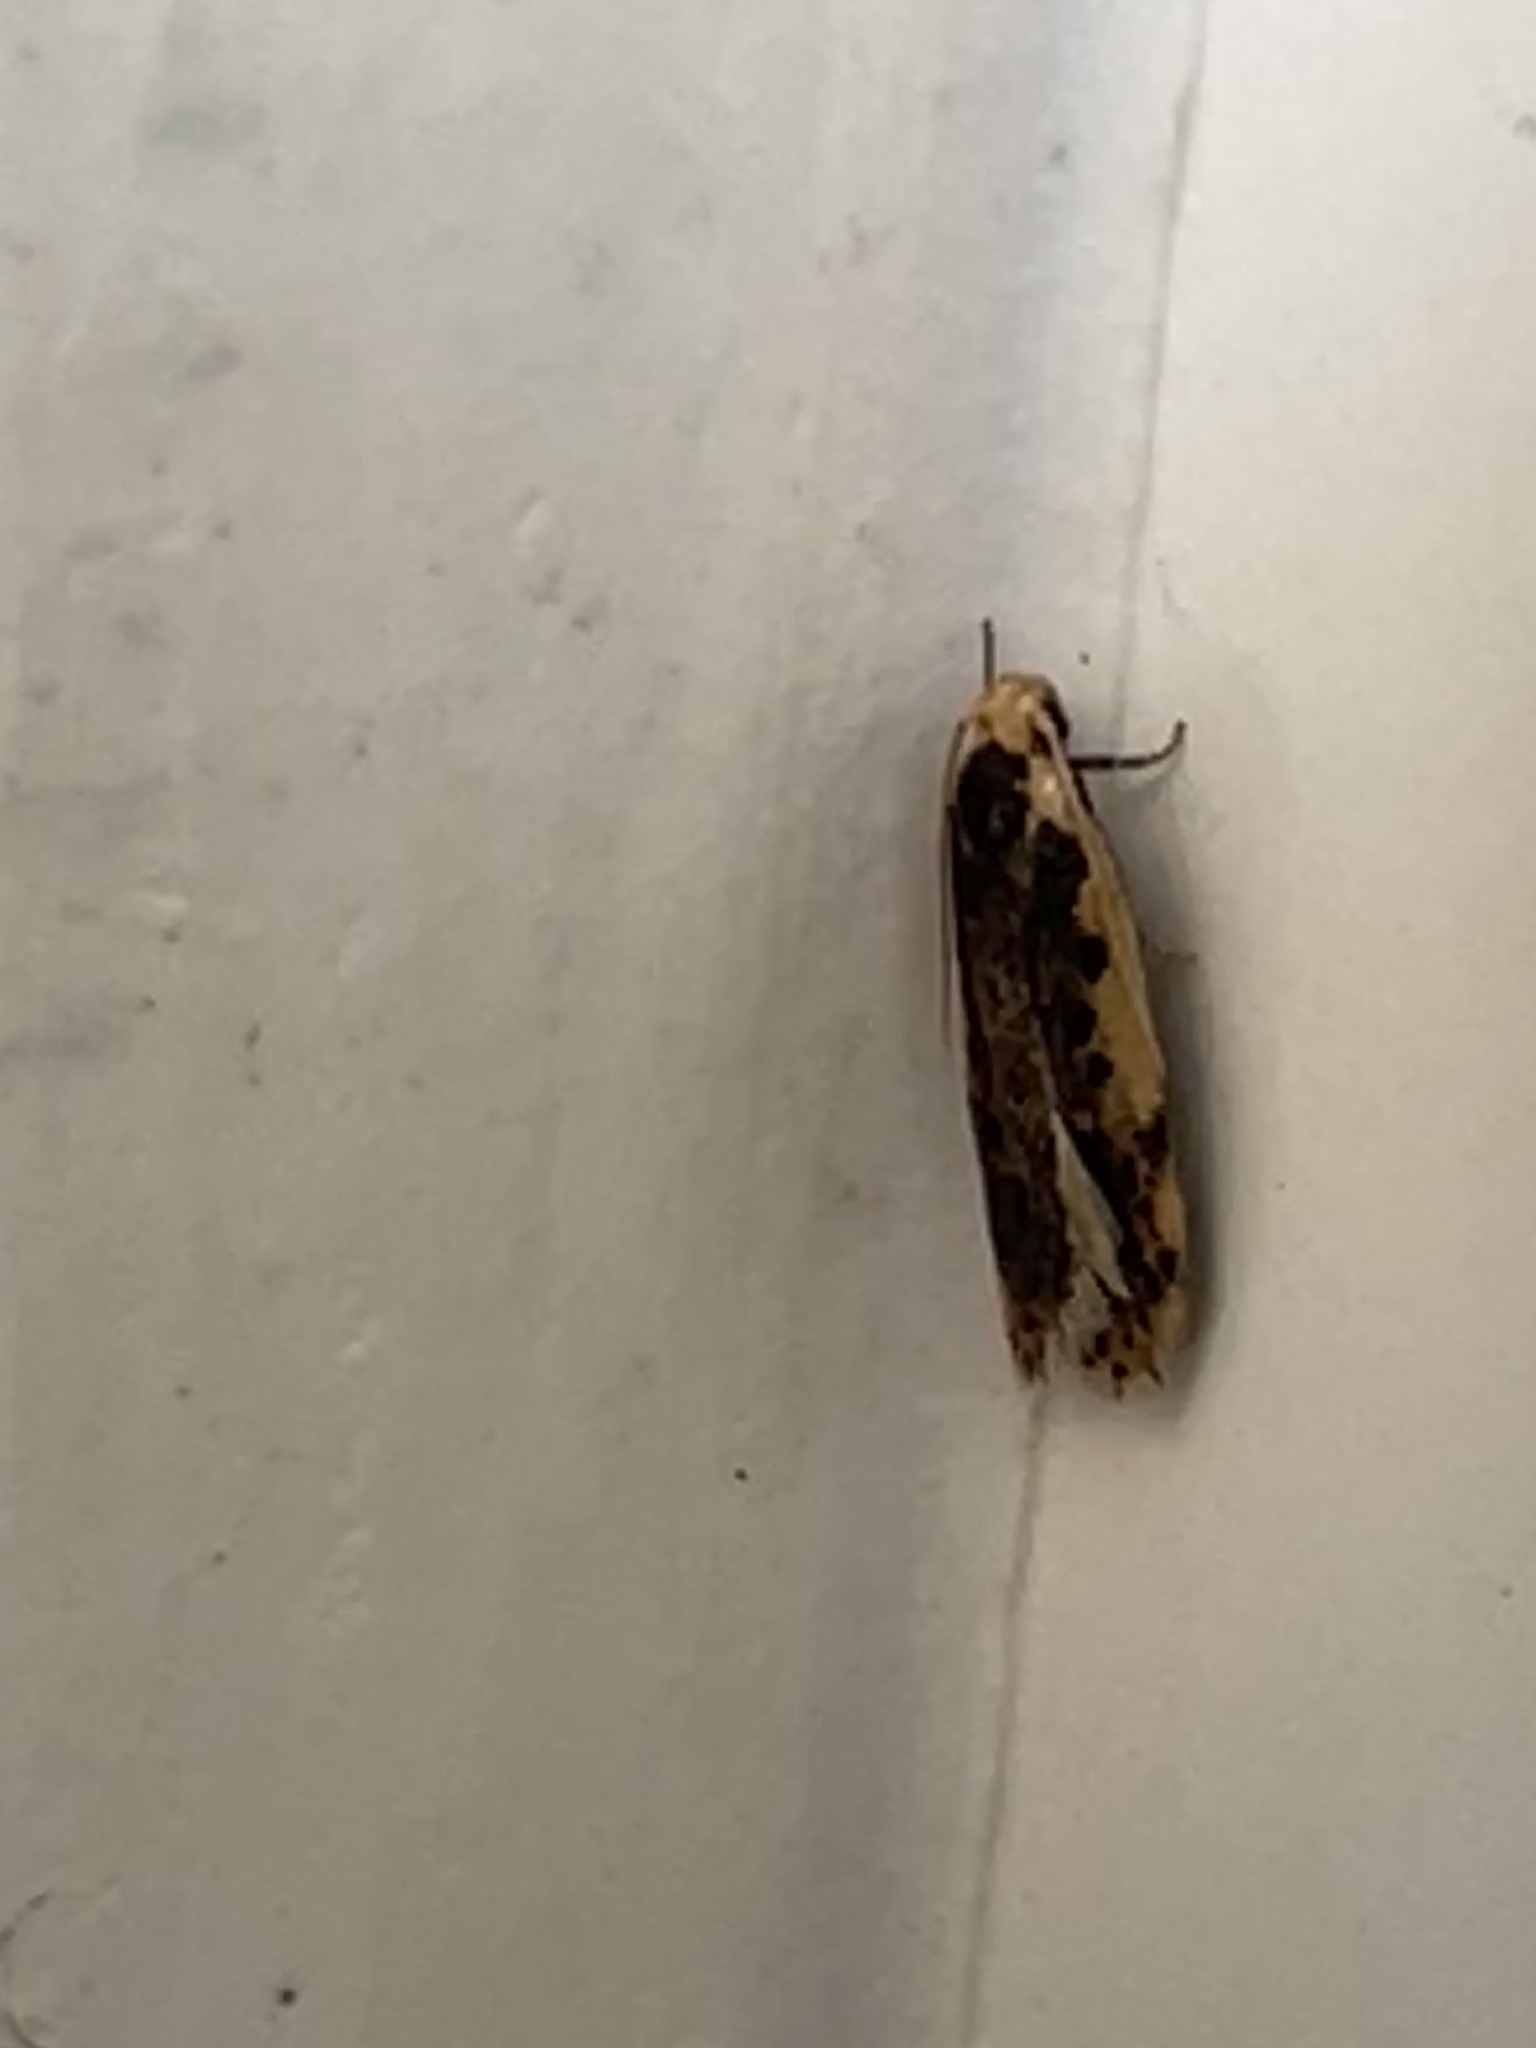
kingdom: Animalia
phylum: Arthropoda
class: Insecta
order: Lepidoptera
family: Oecophoridae
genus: Hoplostega
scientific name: Hoplostega ochroma
